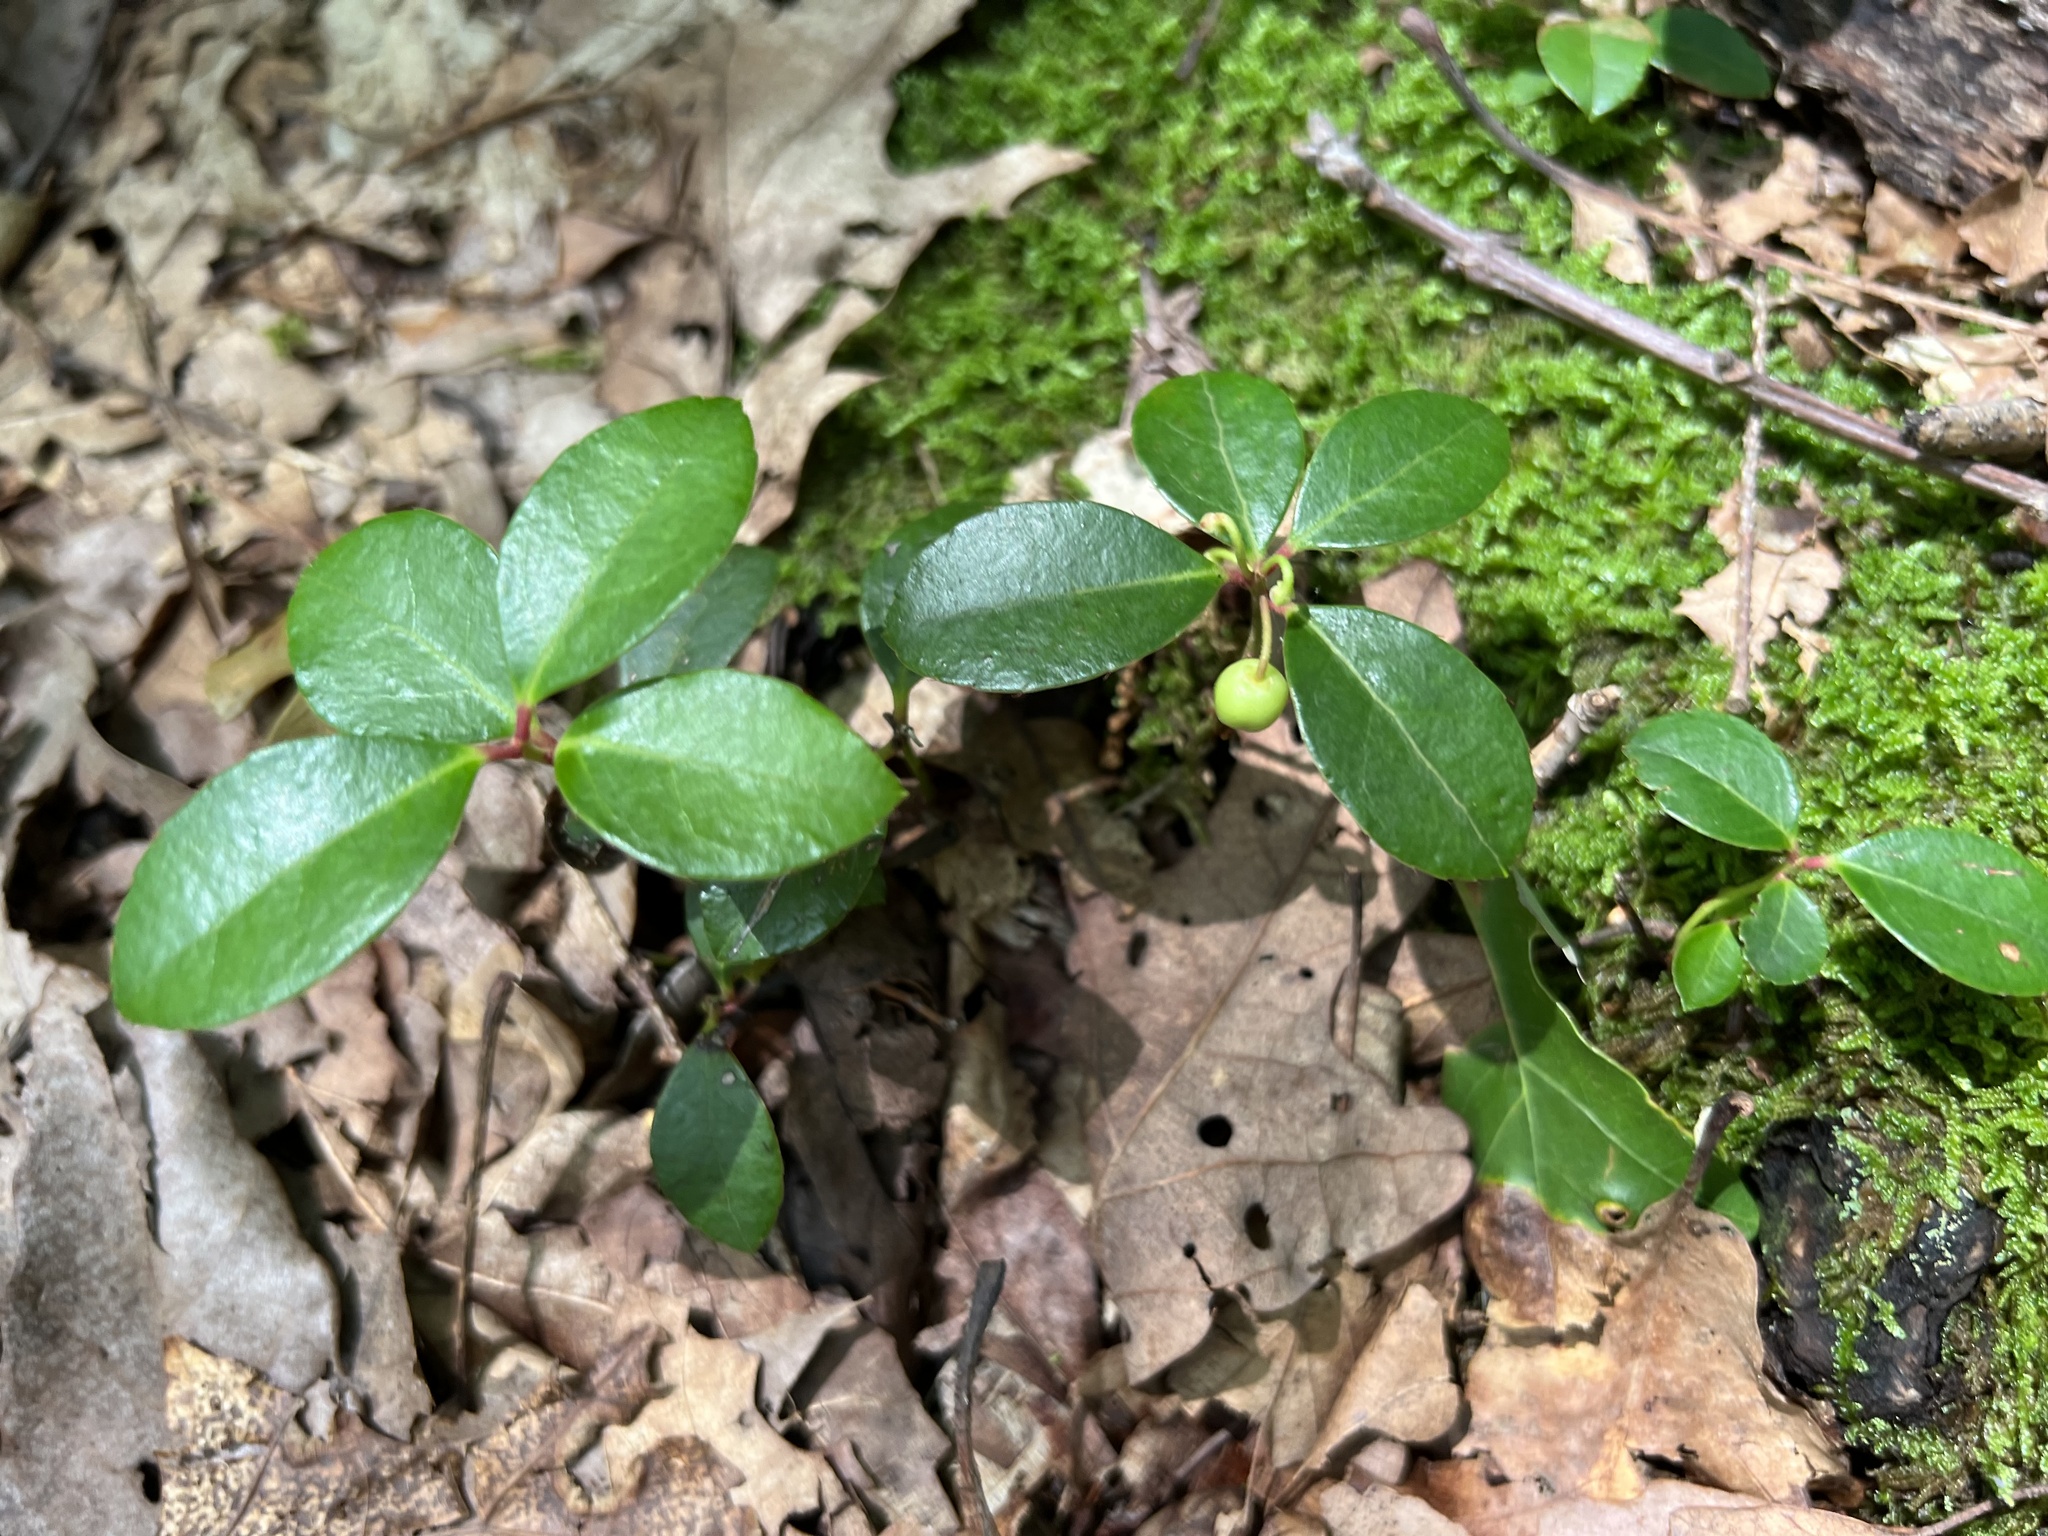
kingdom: Plantae
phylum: Tracheophyta
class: Magnoliopsida
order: Ericales
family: Ericaceae
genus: Gaultheria
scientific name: Gaultheria procumbens
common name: Checkerberry
